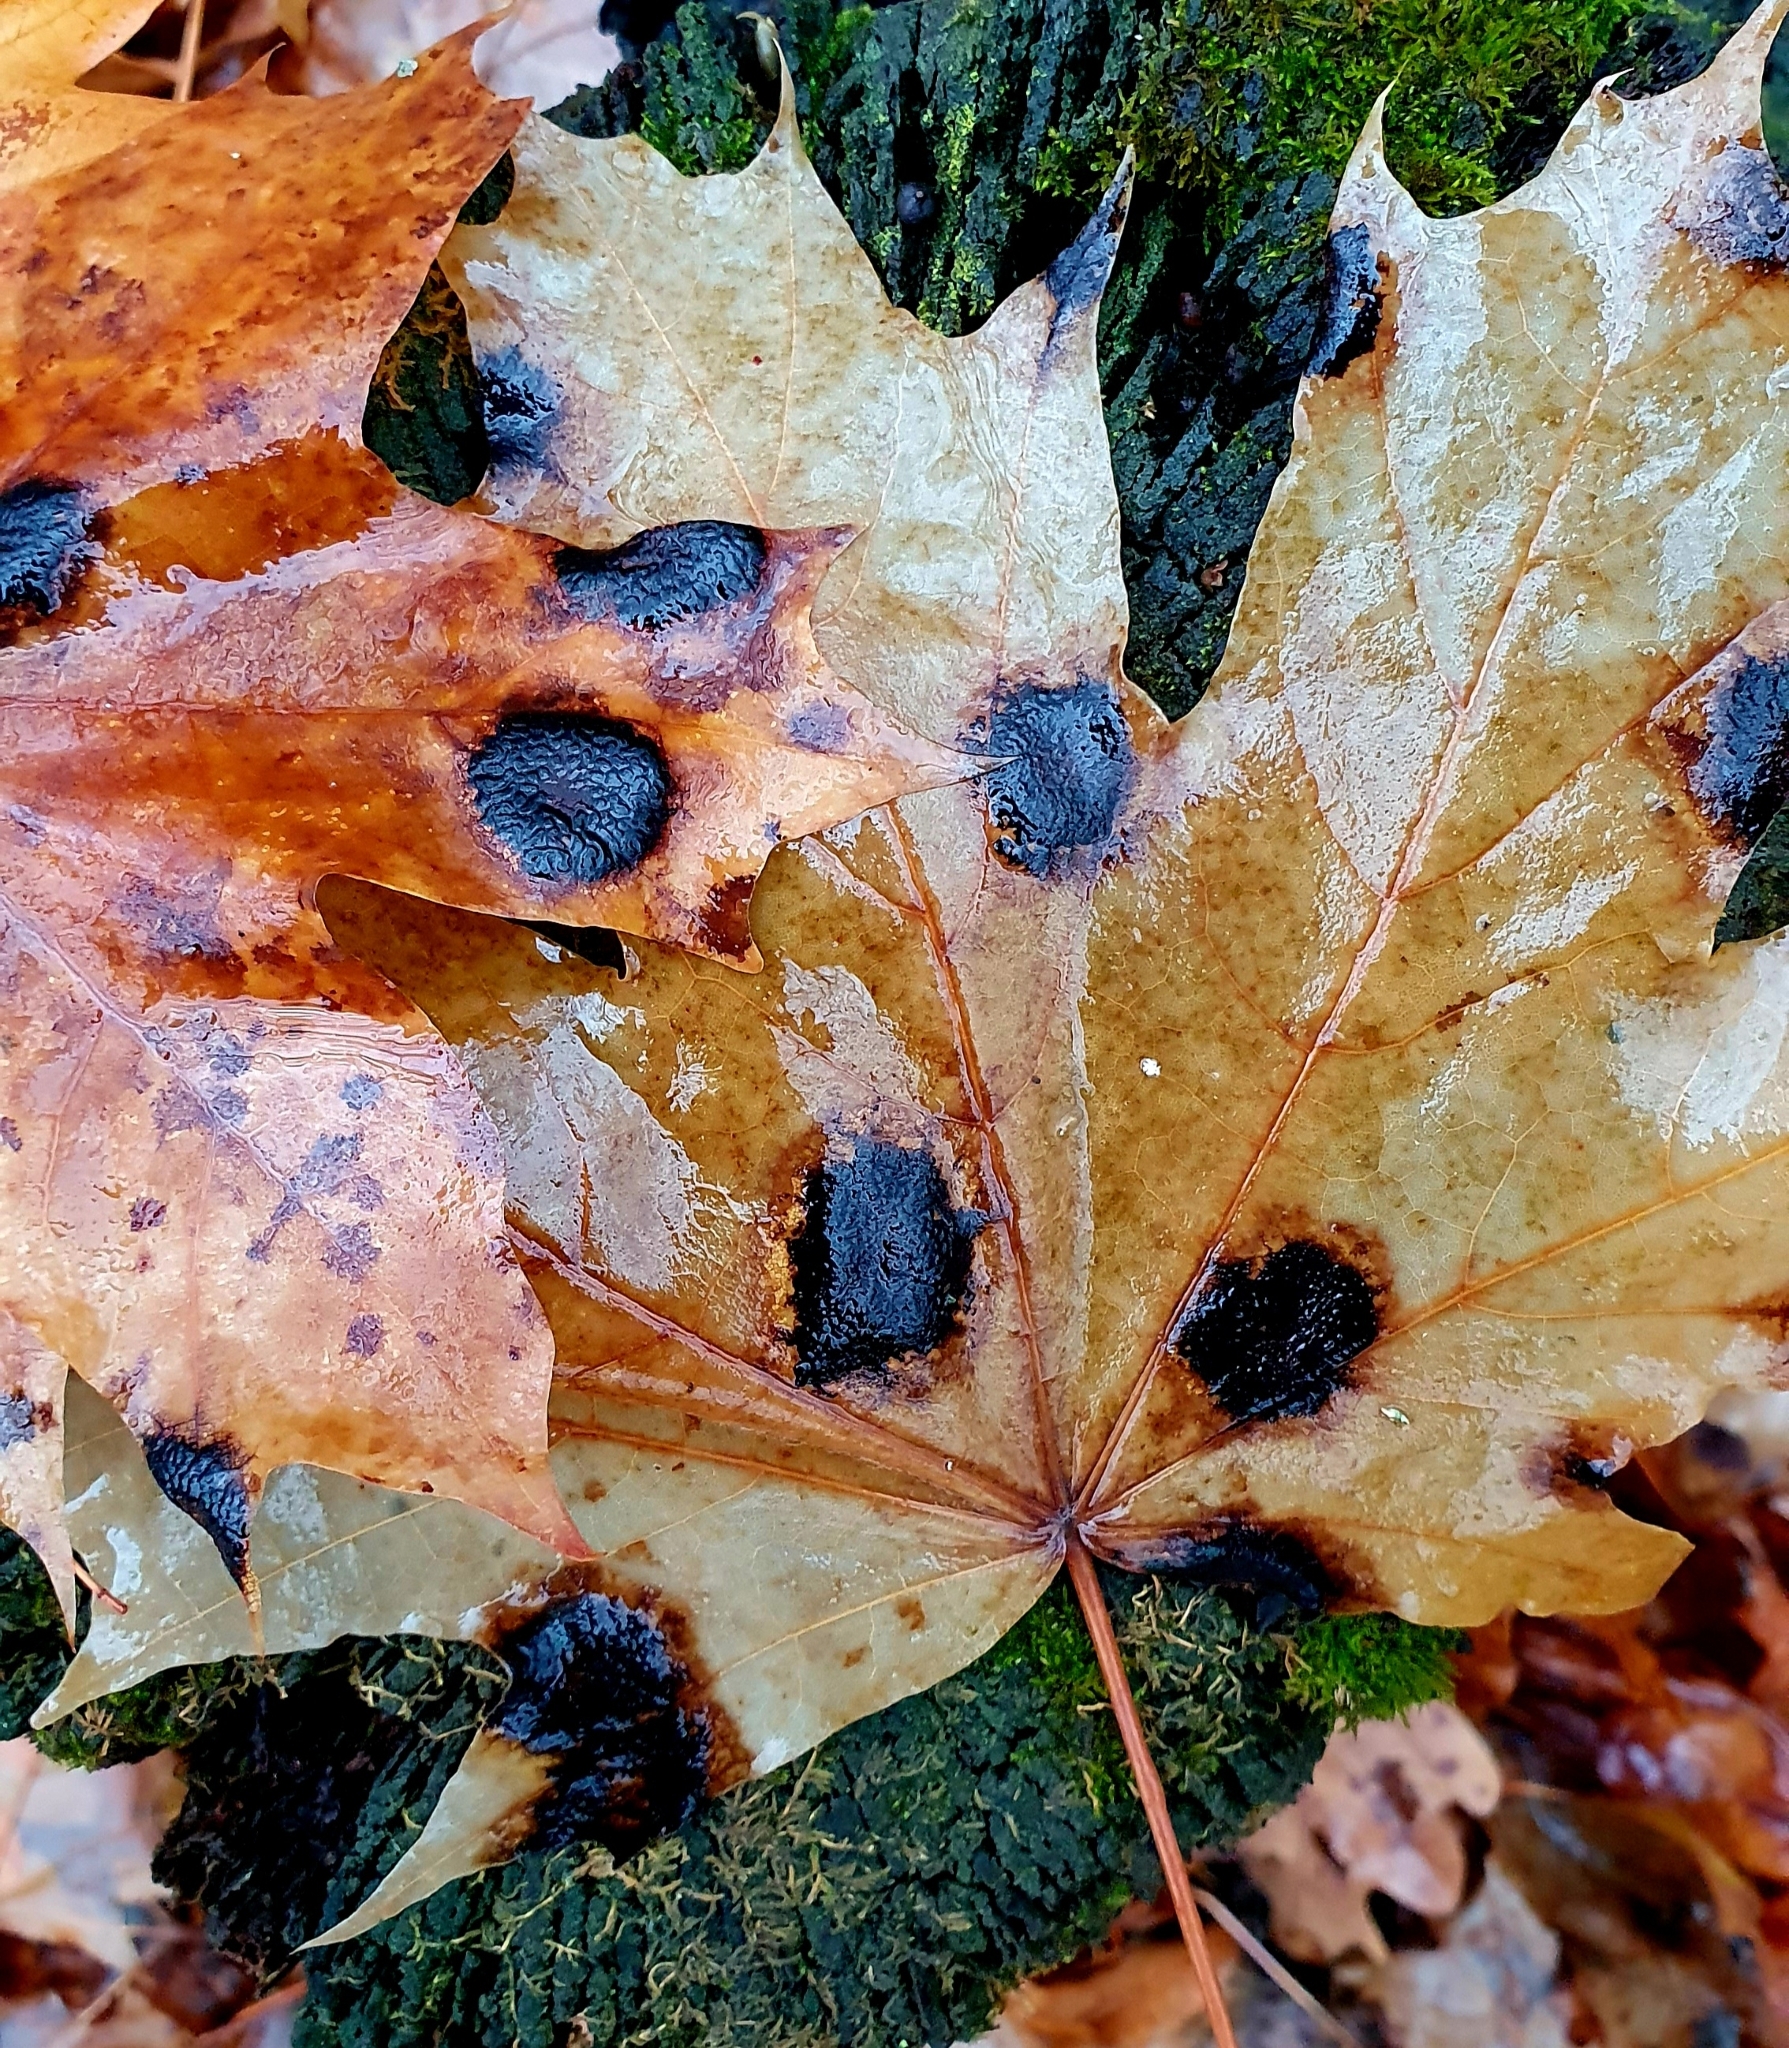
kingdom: Fungi
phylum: Ascomycota
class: Leotiomycetes
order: Rhytismatales
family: Rhytismataceae
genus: Rhytisma
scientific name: Rhytisma acerinum
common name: European tar spot
